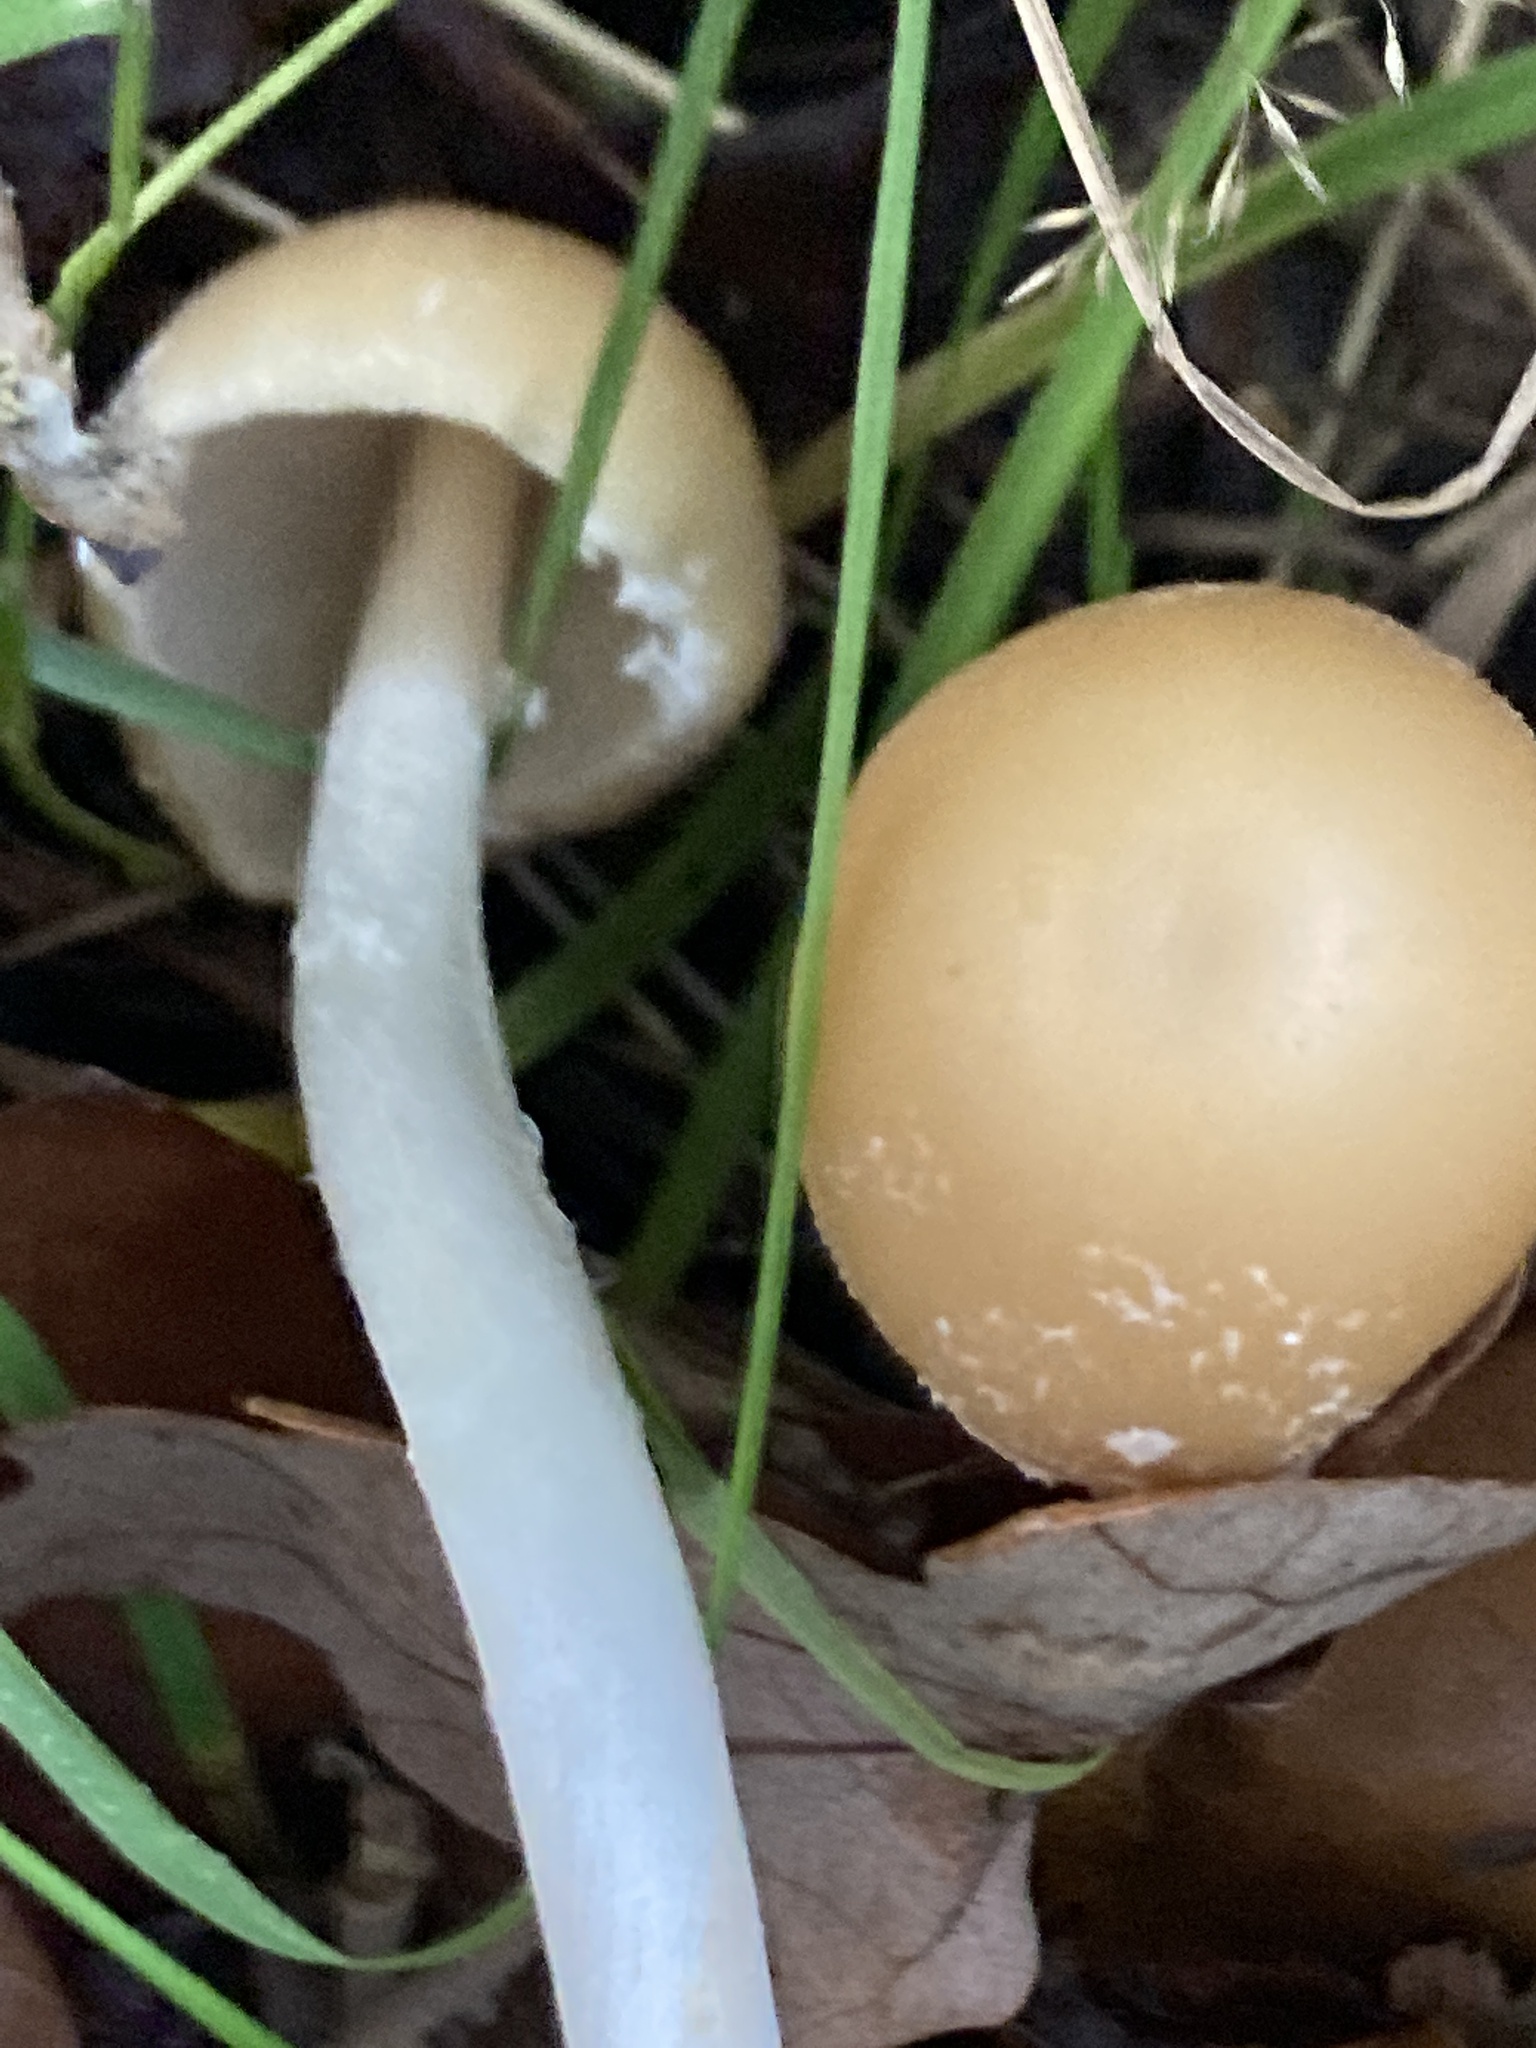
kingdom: Fungi
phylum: Basidiomycota
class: Agaricomycetes
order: Agaricales
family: Psathyrellaceae
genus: Candolleomyces
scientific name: Candolleomyces candolleanus
